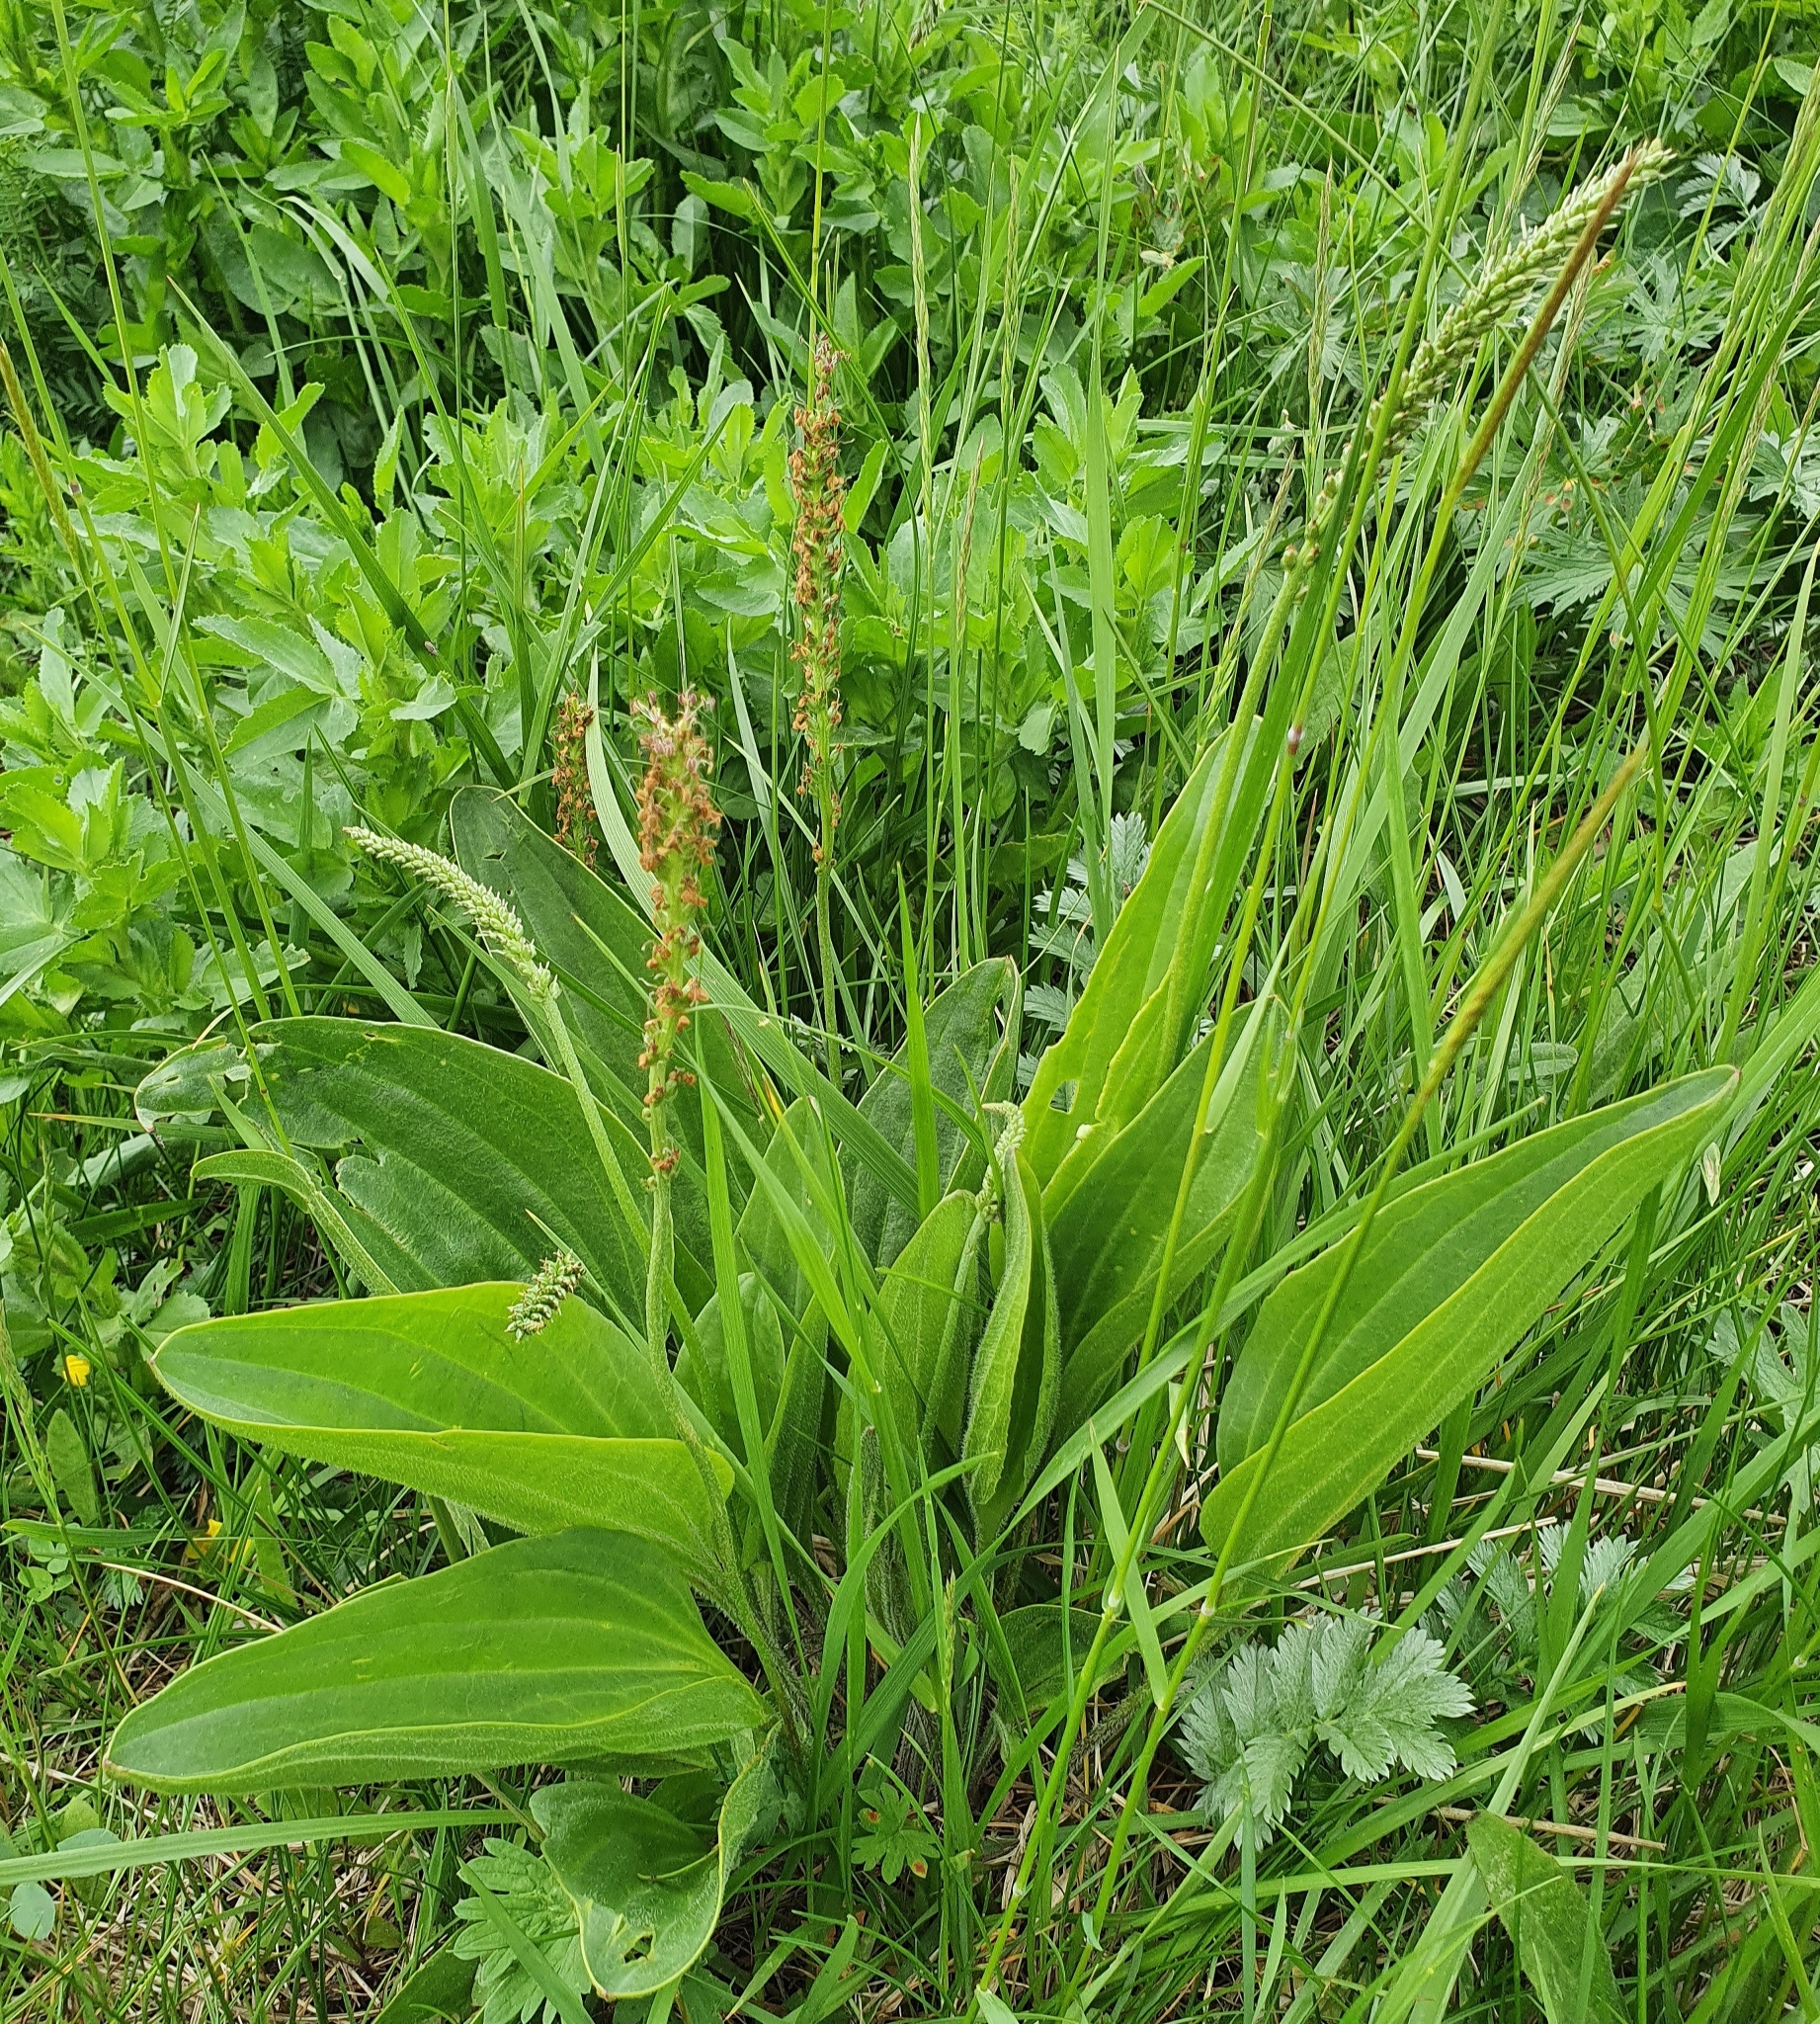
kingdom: Plantae
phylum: Tracheophyta
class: Magnoliopsida
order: Lamiales
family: Plantaginaceae
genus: Plantago
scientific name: Plantago cornuti
